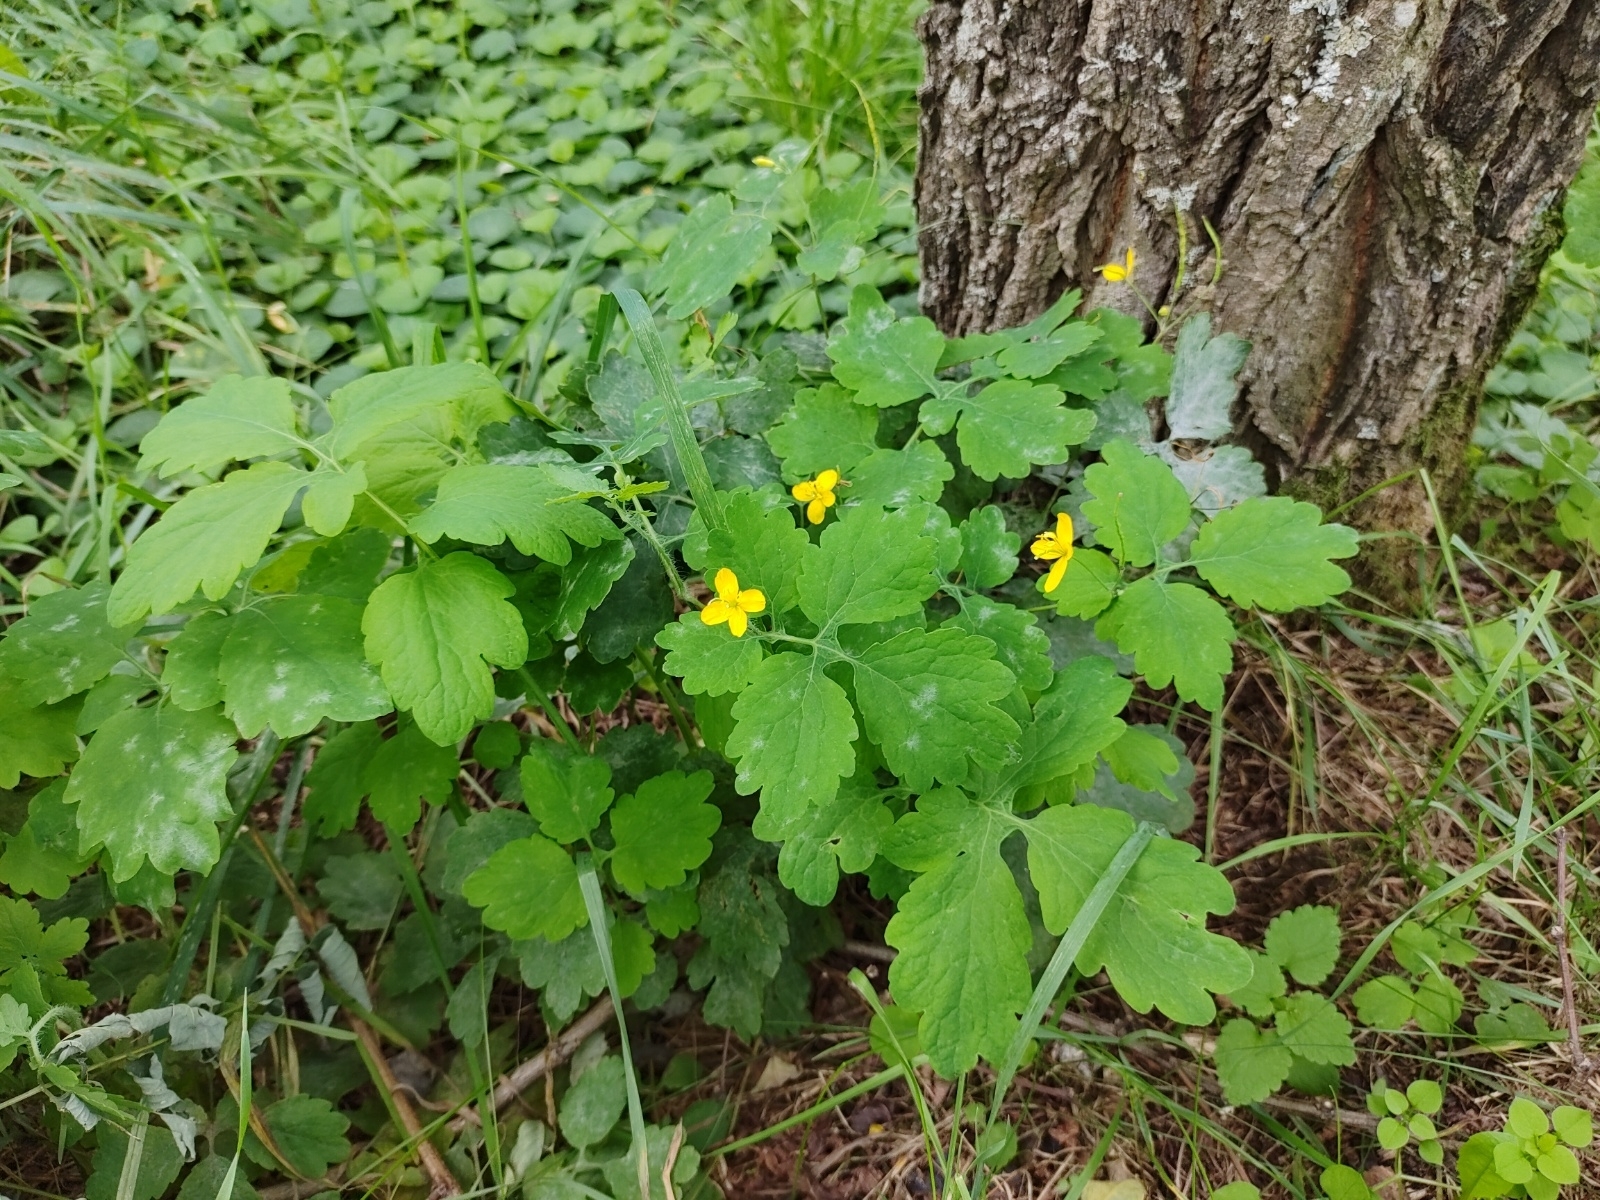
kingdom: Plantae
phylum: Tracheophyta
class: Magnoliopsida
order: Ranunculales
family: Papaveraceae
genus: Chelidonium
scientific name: Chelidonium majus
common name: Greater celandine
